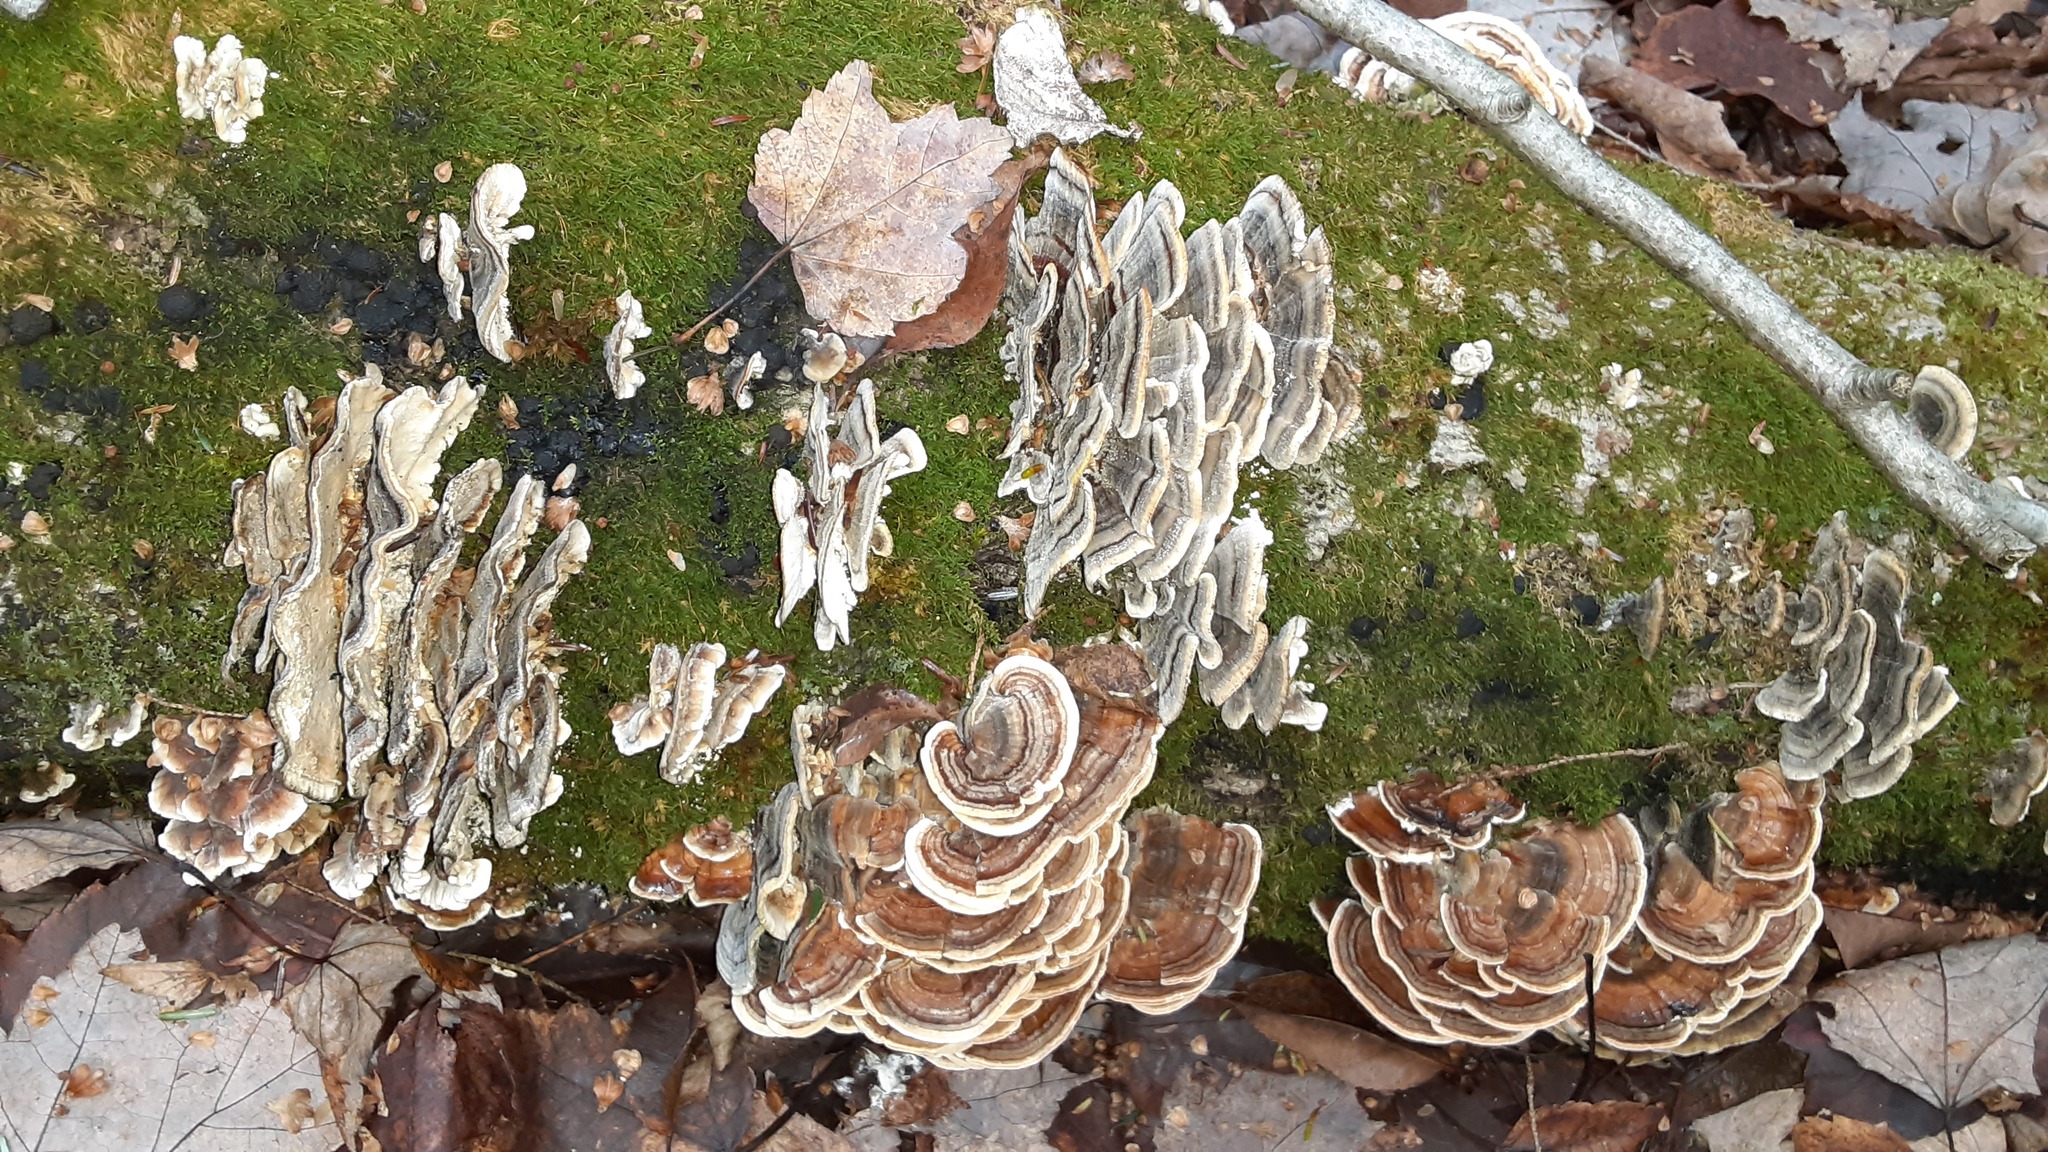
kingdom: Fungi
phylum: Basidiomycota
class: Agaricomycetes
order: Polyporales
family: Polyporaceae
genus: Trametes
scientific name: Trametes versicolor
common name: Turkeytail
